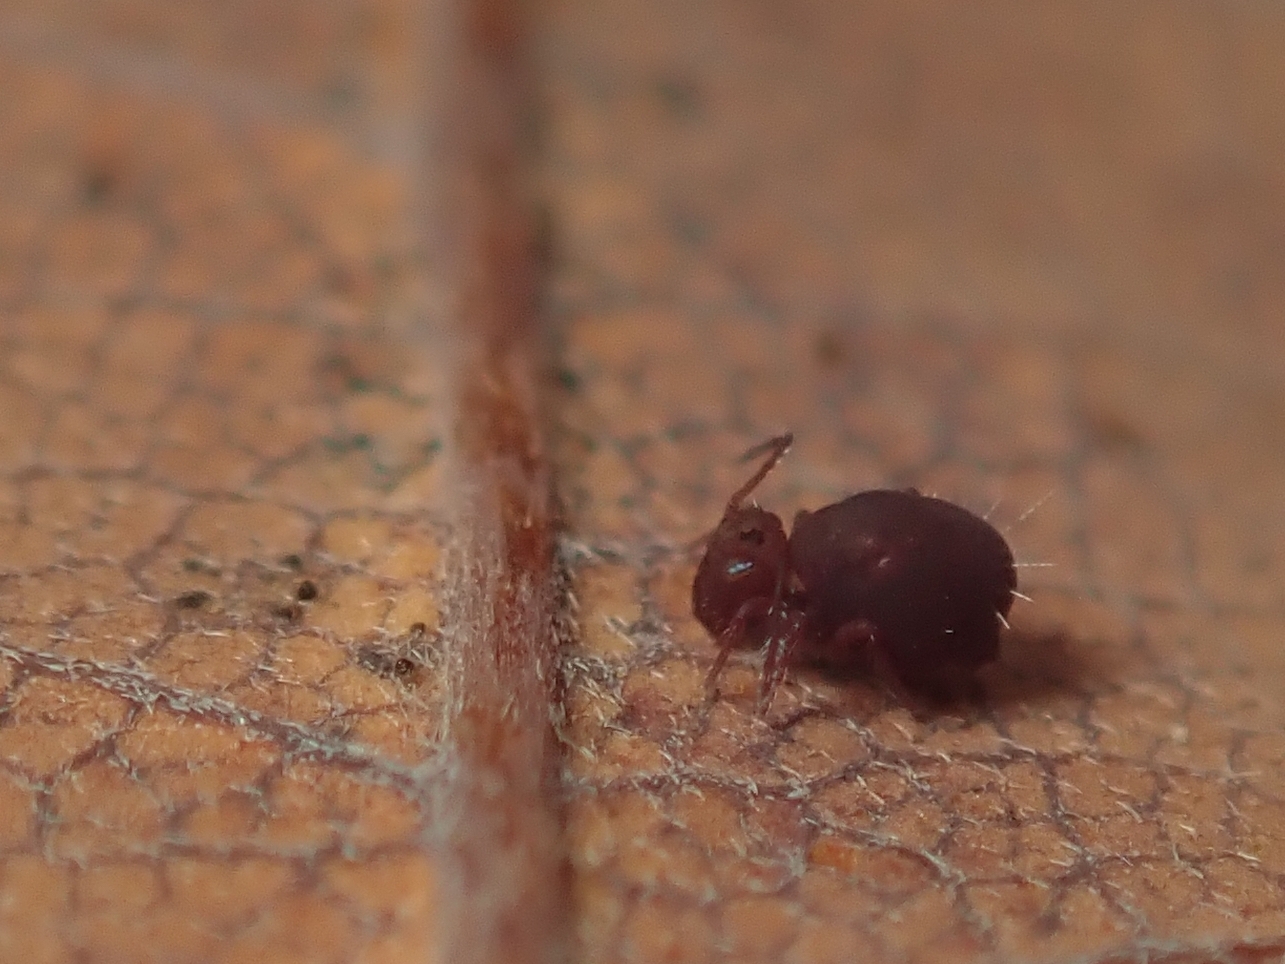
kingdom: Animalia
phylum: Arthropoda
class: Collembola
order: Symphypleona
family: Dicyrtomidae
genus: Dicyrtoma
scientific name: Dicyrtoma fusca
